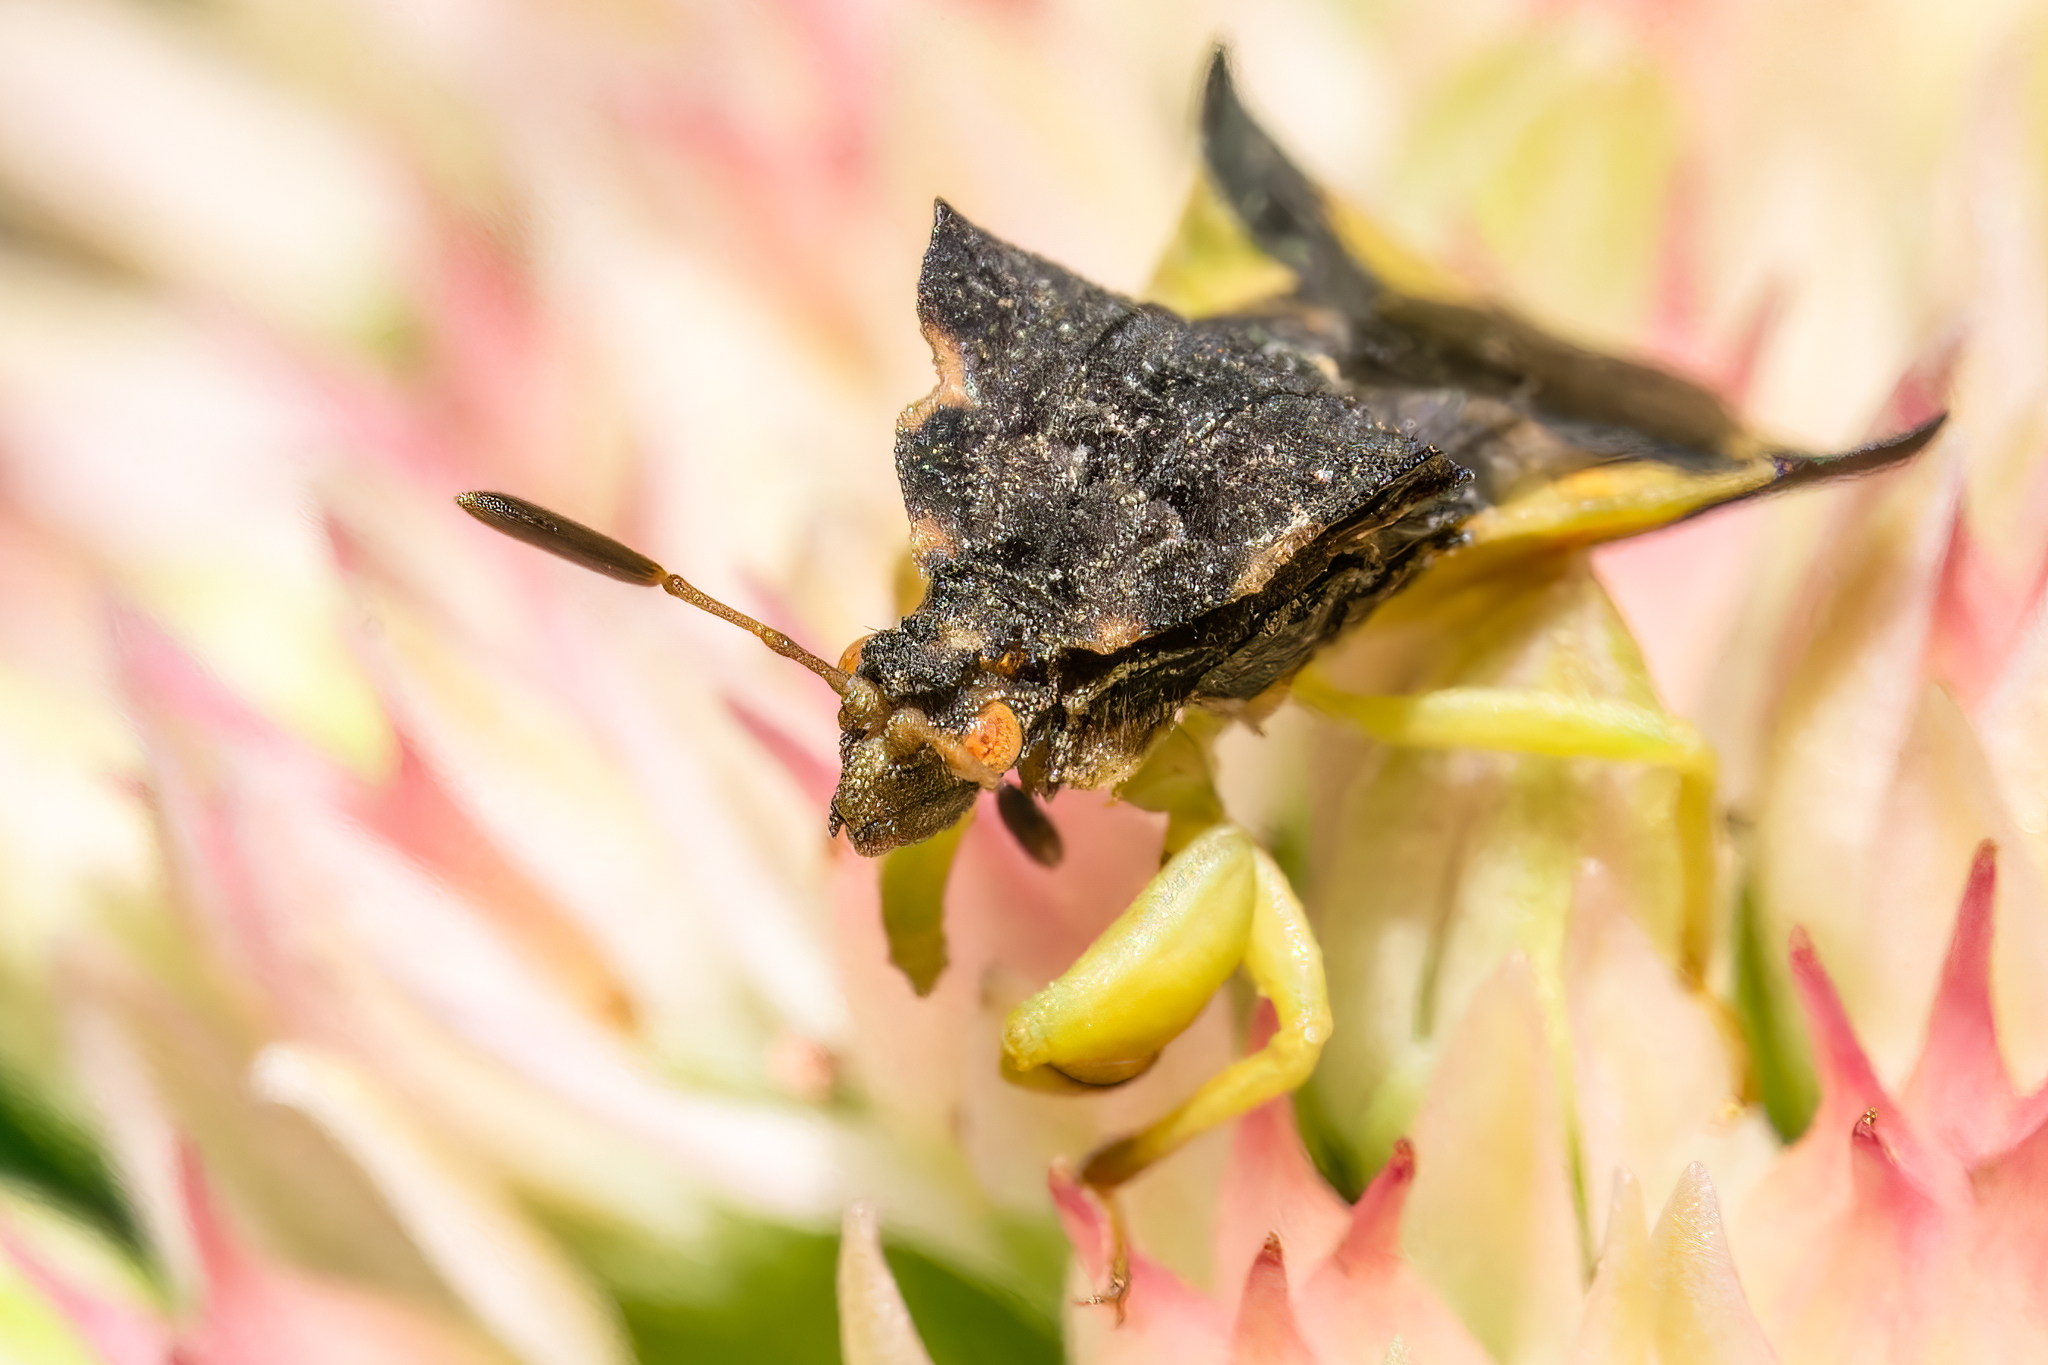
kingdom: Animalia
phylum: Arthropoda
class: Insecta
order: Hemiptera
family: Reduviidae
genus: Phymata
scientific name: Phymata pennsylvanica
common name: Pennsylvania ambush bug
